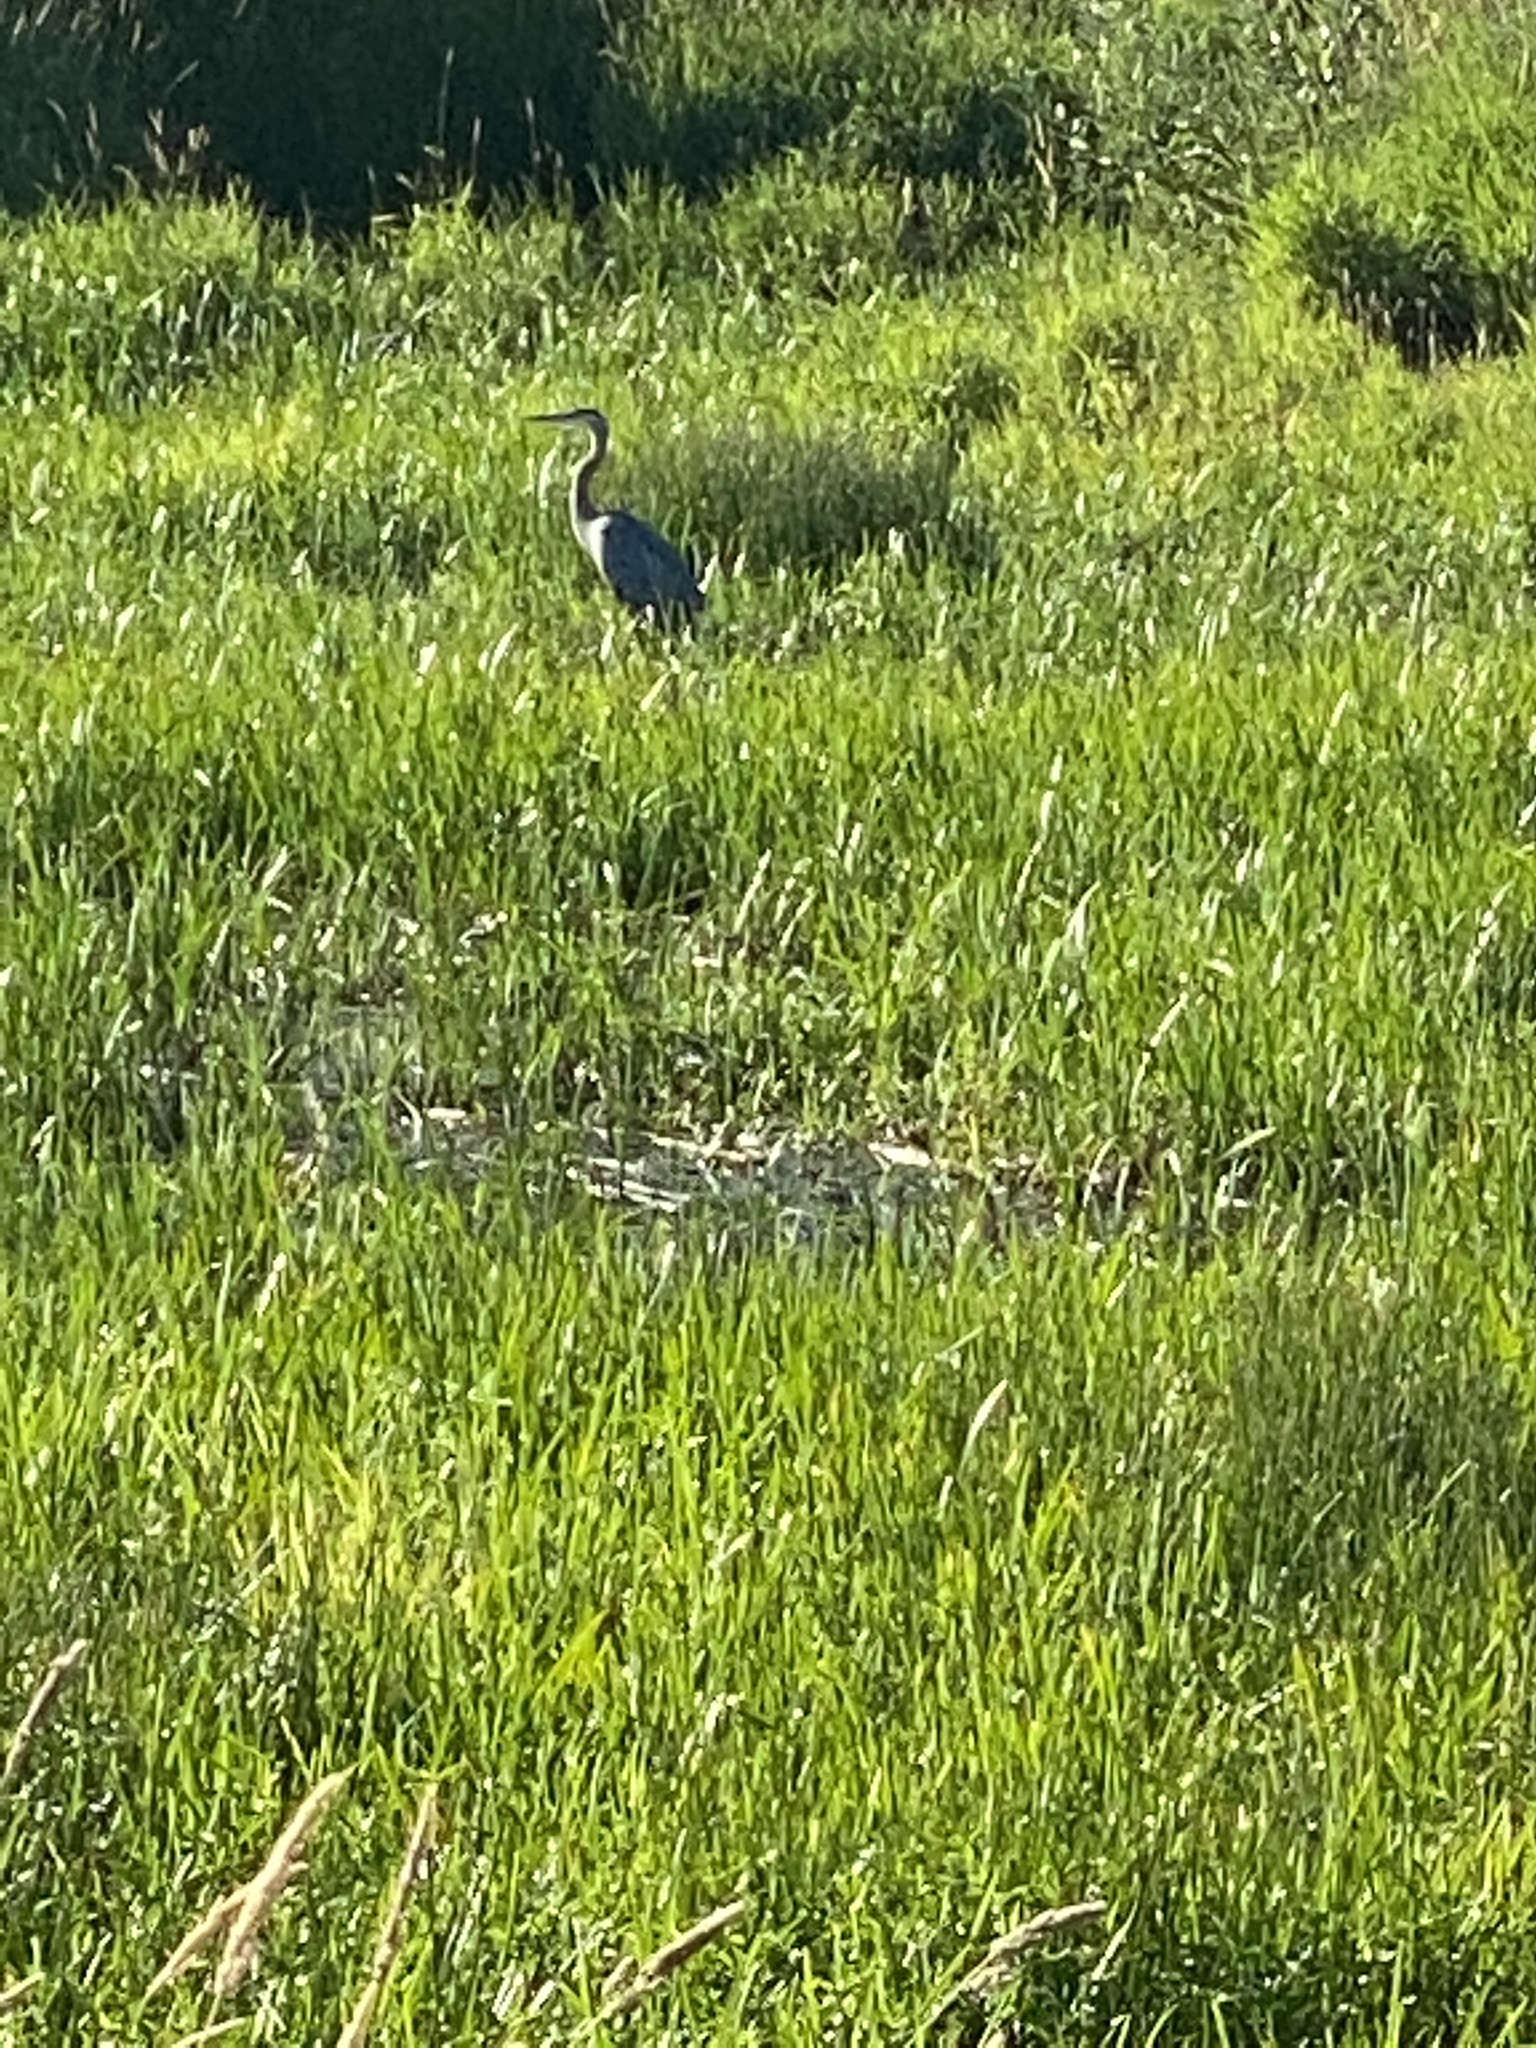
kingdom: Animalia
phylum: Chordata
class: Aves
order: Pelecaniformes
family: Ardeidae
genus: Ardea
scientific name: Ardea herodias
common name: Great blue heron
